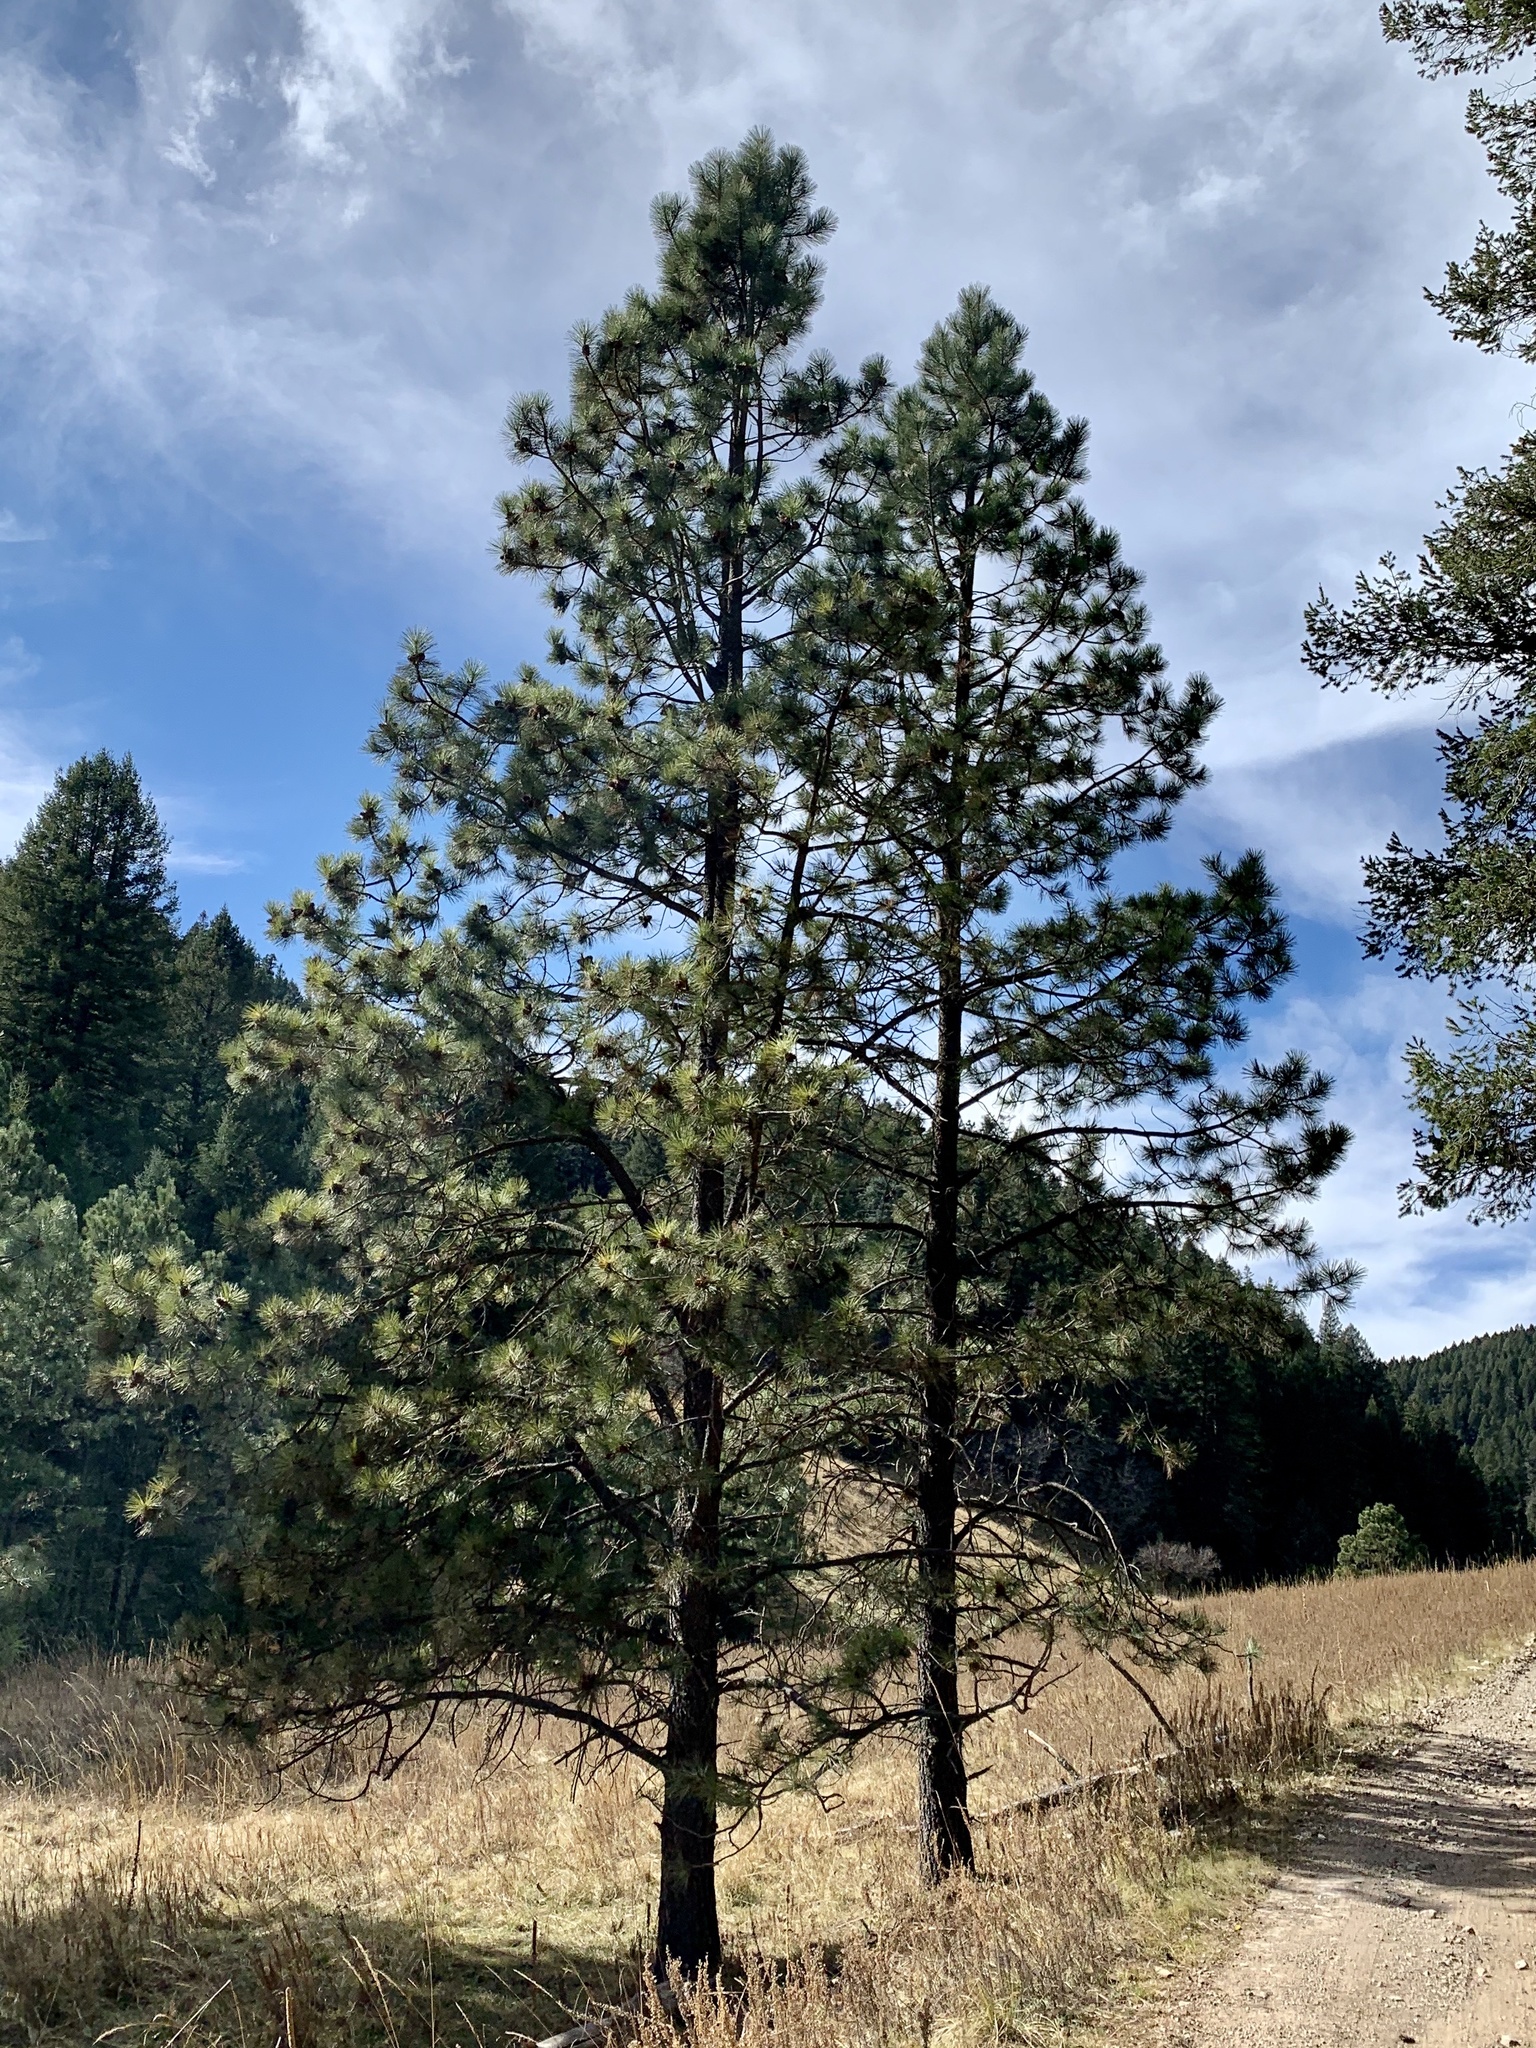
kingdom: Plantae
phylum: Tracheophyta
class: Pinopsida
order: Pinales
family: Pinaceae
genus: Pinus
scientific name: Pinus ponderosa
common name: Western yellow-pine
